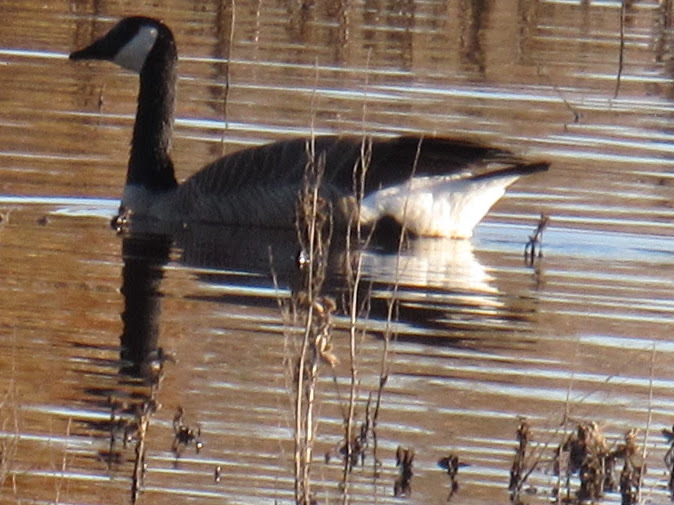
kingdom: Animalia
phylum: Chordata
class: Aves
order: Anseriformes
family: Anatidae
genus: Branta
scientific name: Branta canadensis
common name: Canada goose
